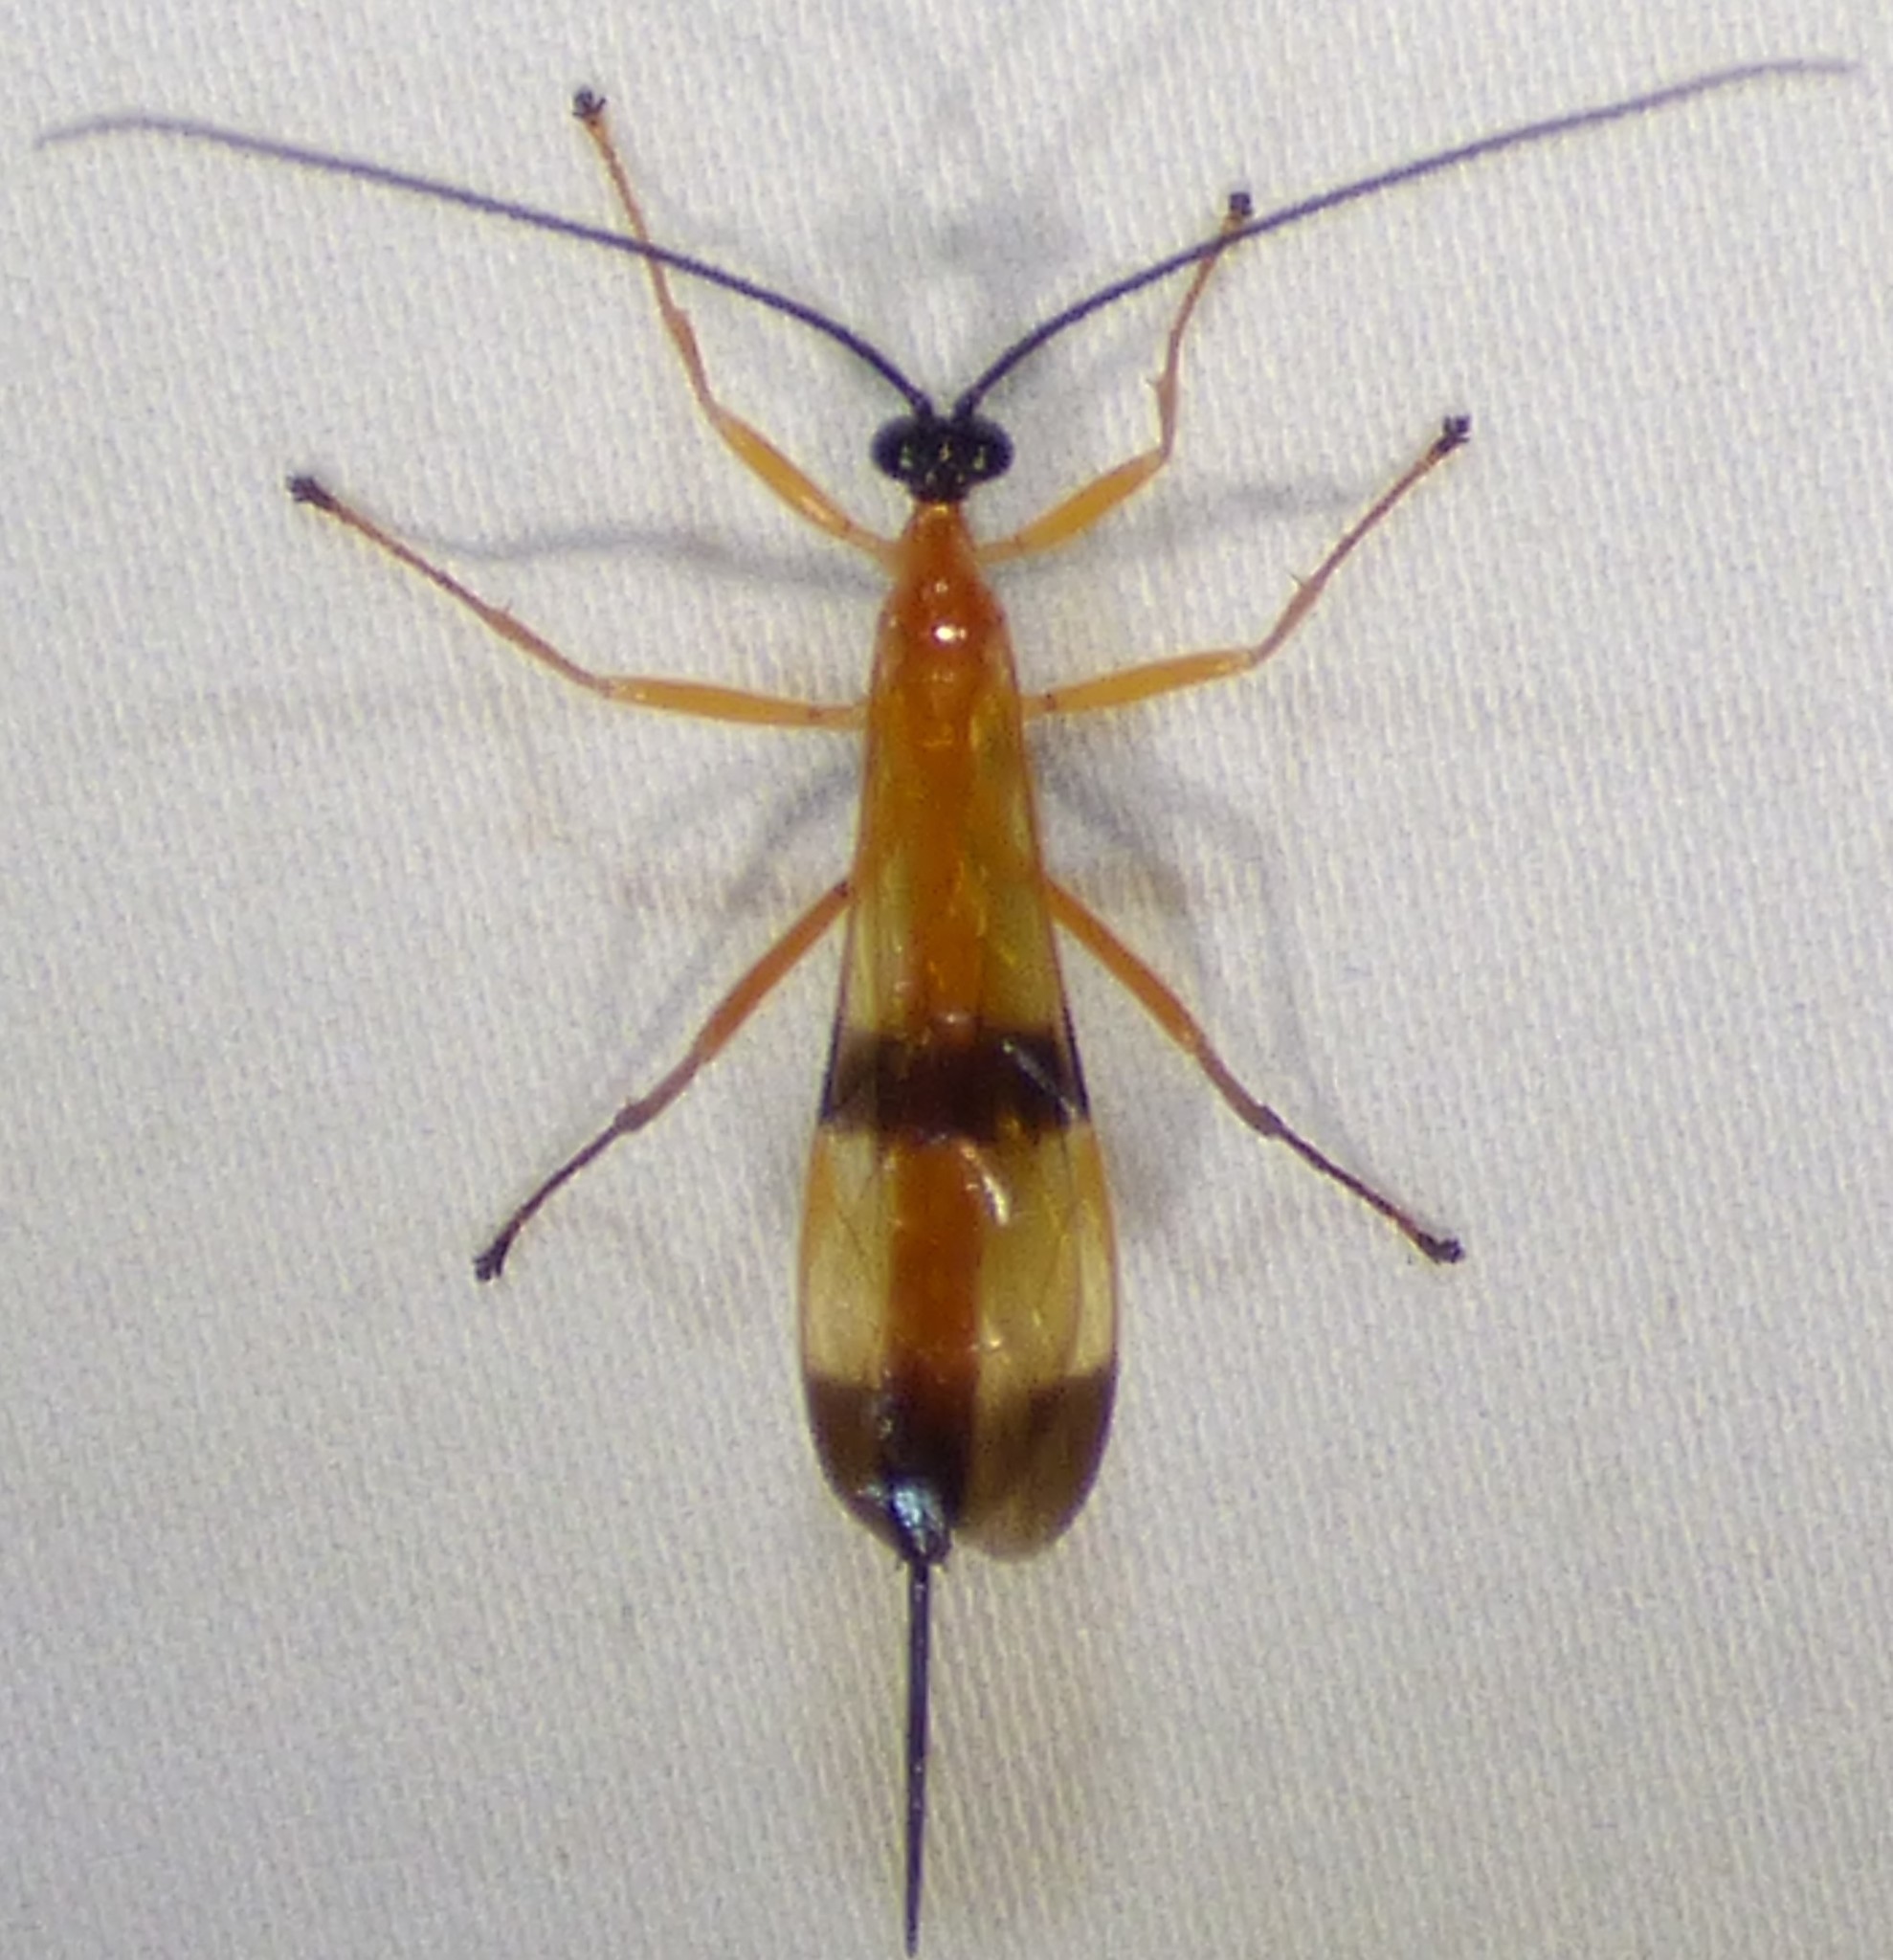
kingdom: Animalia
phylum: Arthropoda
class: Insecta
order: Hymenoptera
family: Ichneumonidae
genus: Acrotaphus
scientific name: Acrotaphus wiltii
